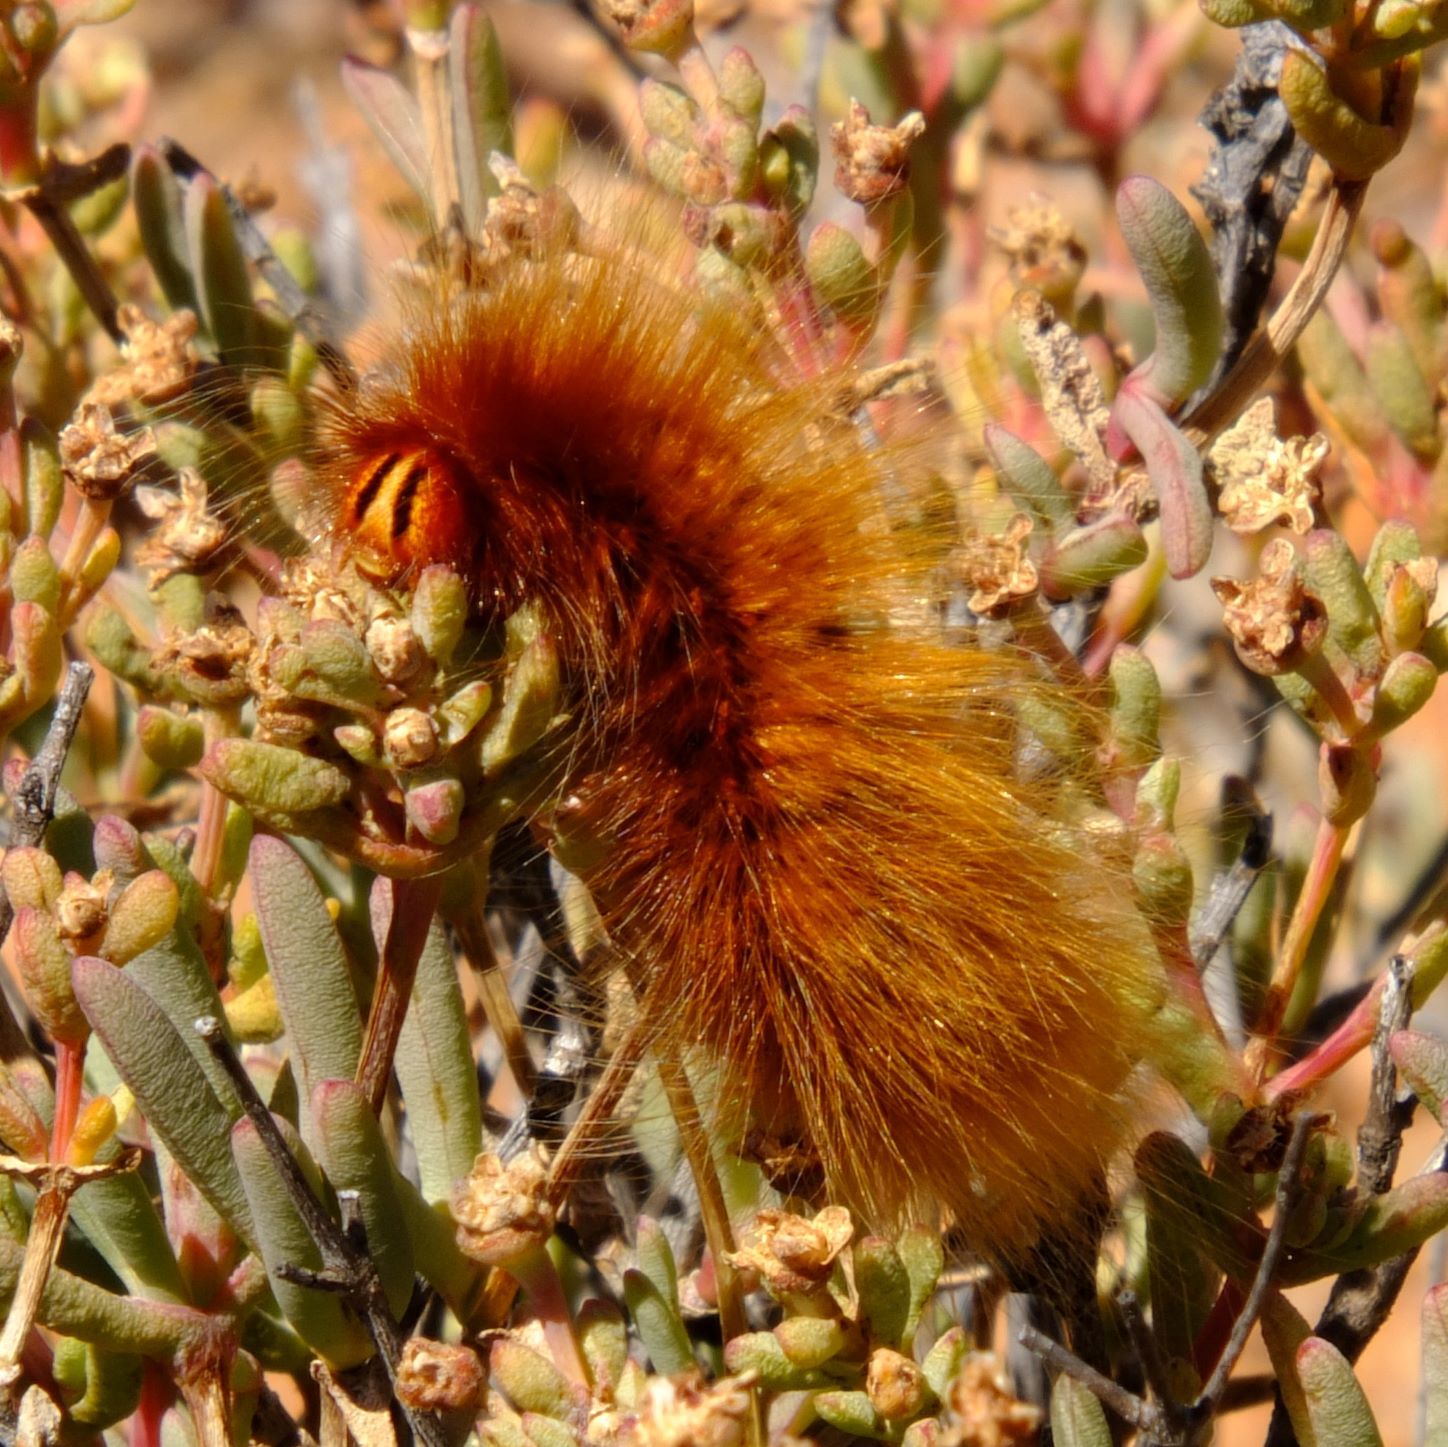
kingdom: Animalia
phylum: Arthropoda
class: Insecta
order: Lepidoptera
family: Lasiocampidae
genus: Mesocelis
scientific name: Mesocelis monticola
